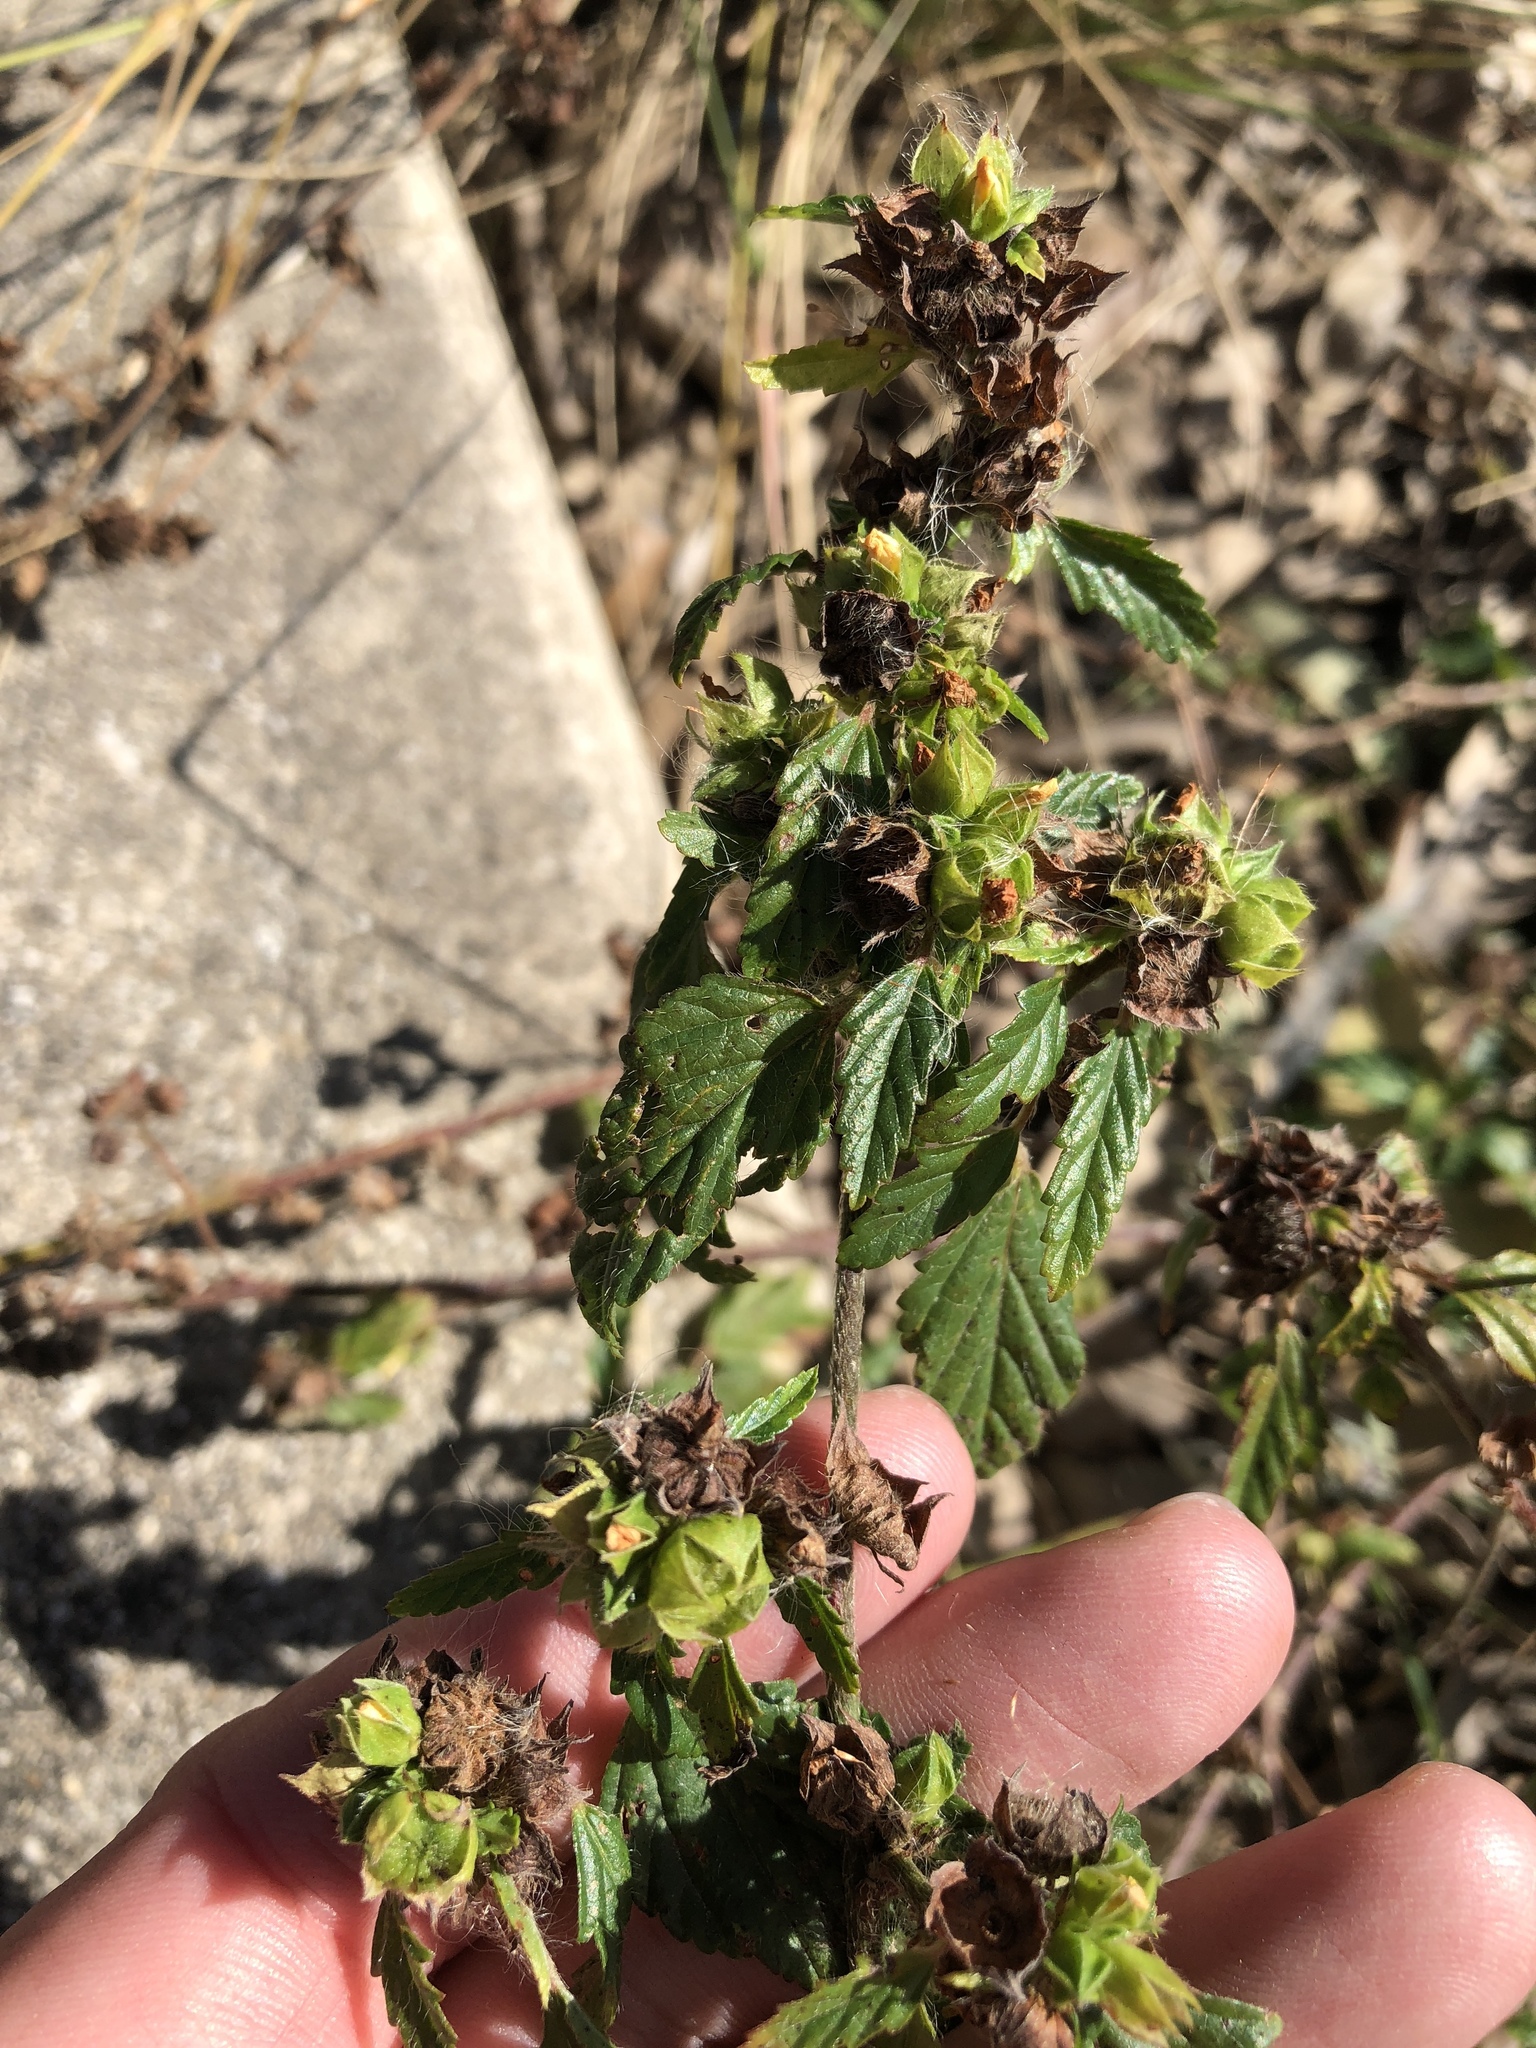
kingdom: Plantae
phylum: Tracheophyta
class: Magnoliopsida
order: Malvales
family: Malvaceae
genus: Malvastrum
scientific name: Malvastrum coromandelianum
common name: Threelobe false mallow
